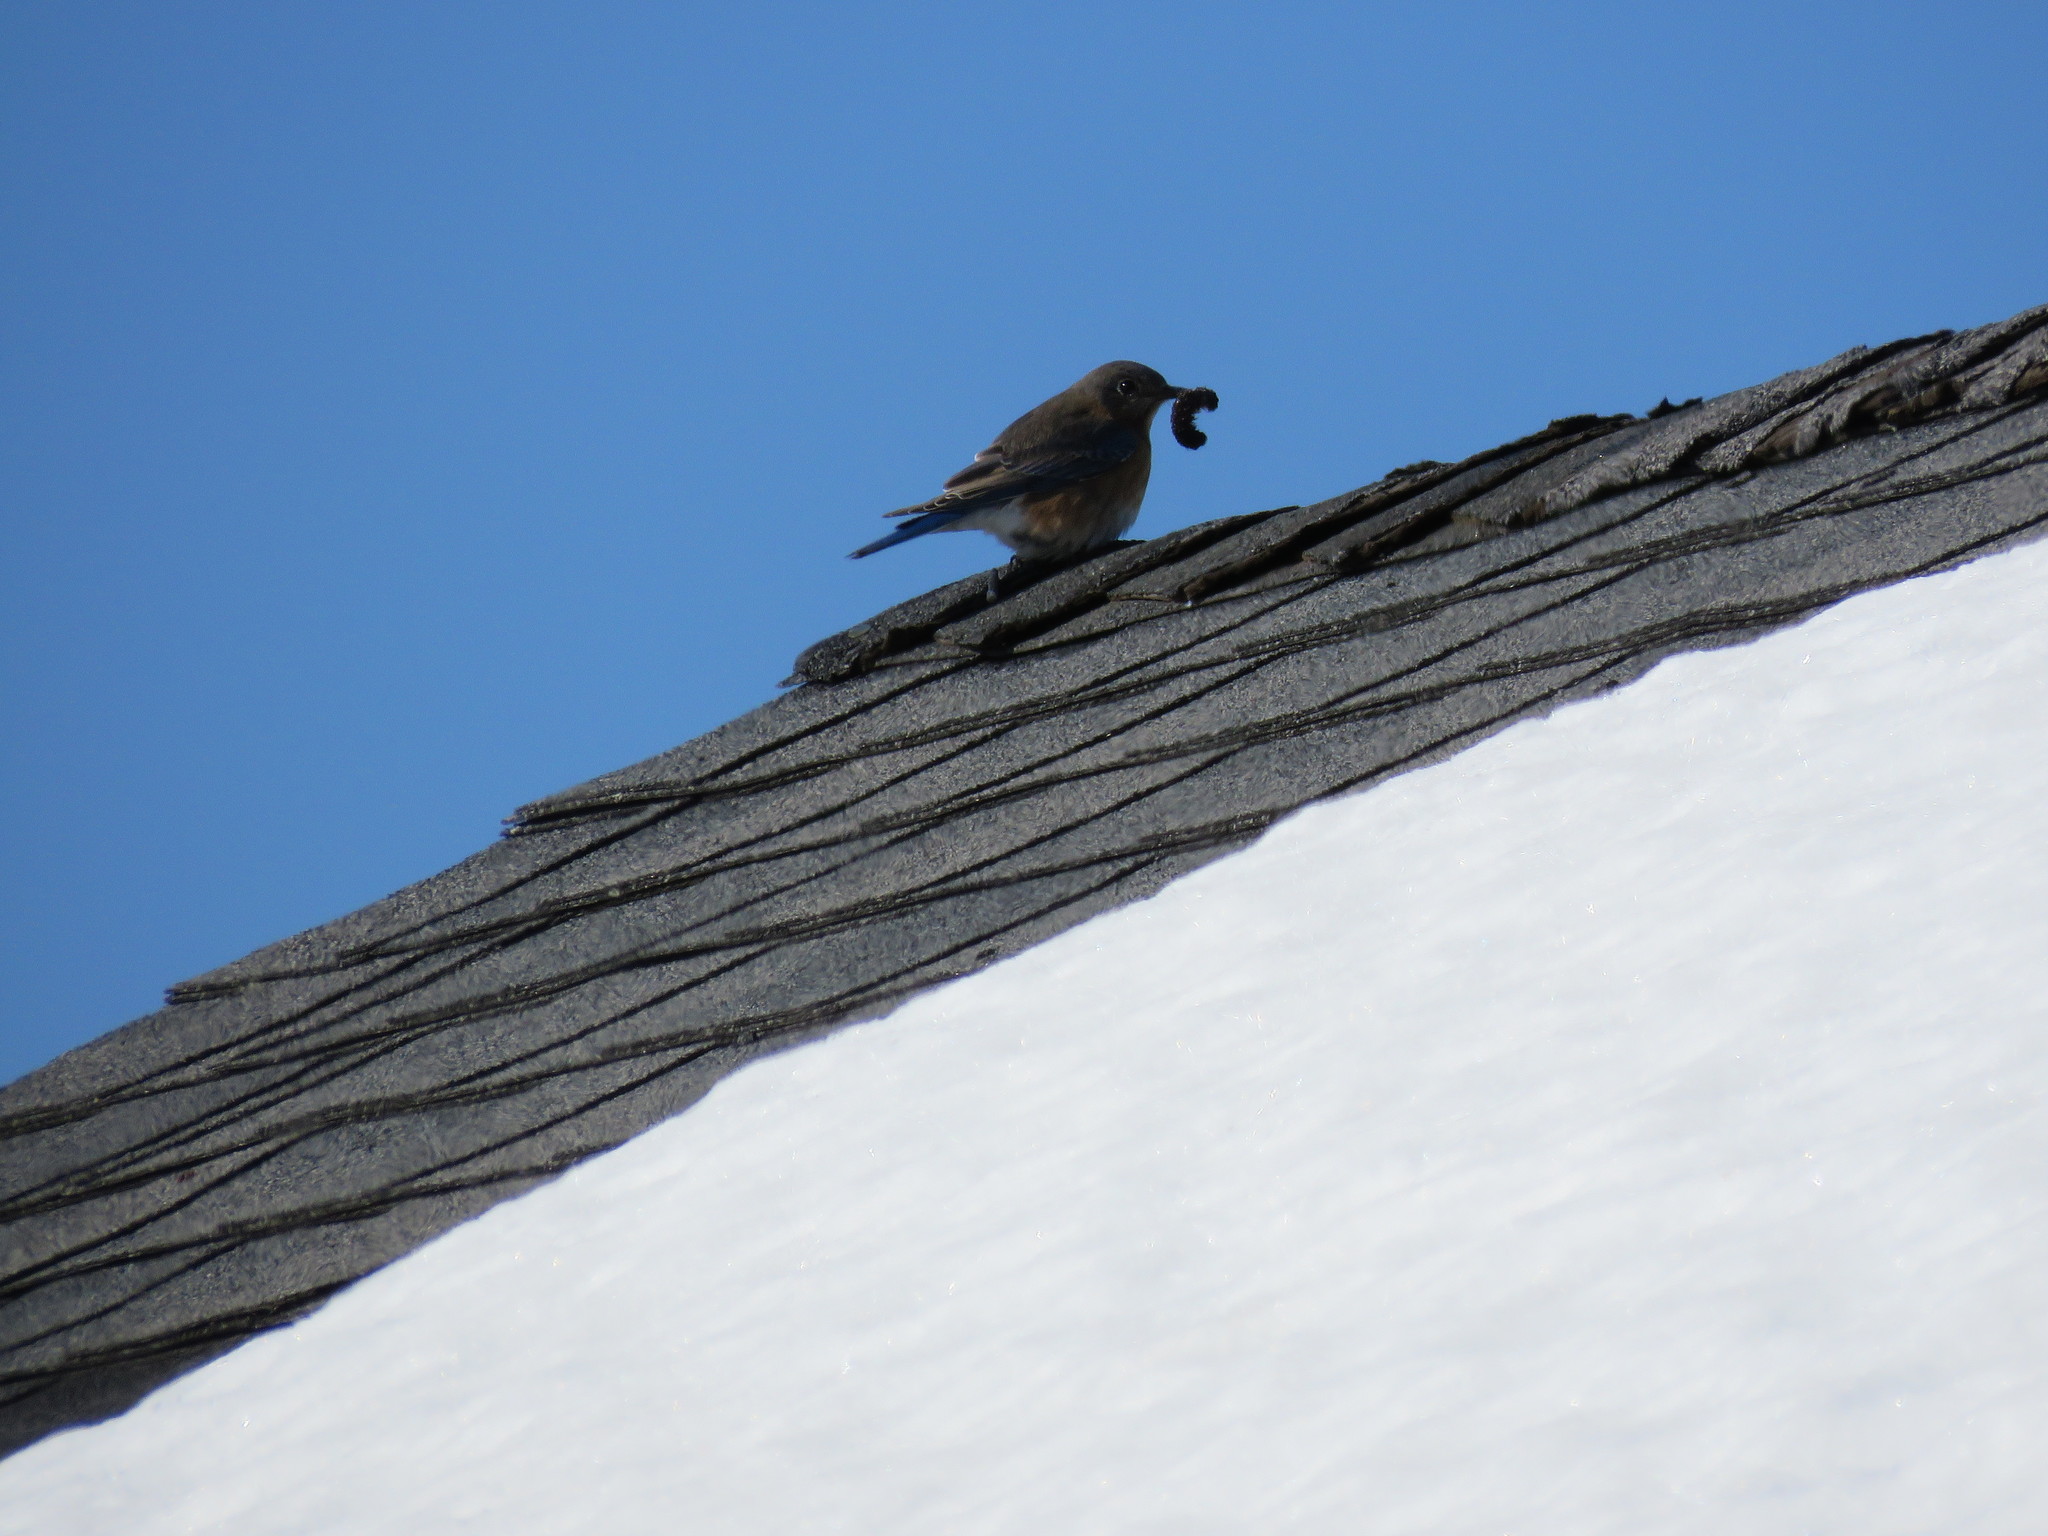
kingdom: Animalia
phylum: Chordata
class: Aves
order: Passeriformes
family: Turdidae
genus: Sialia
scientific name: Sialia sialis
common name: Eastern bluebird
